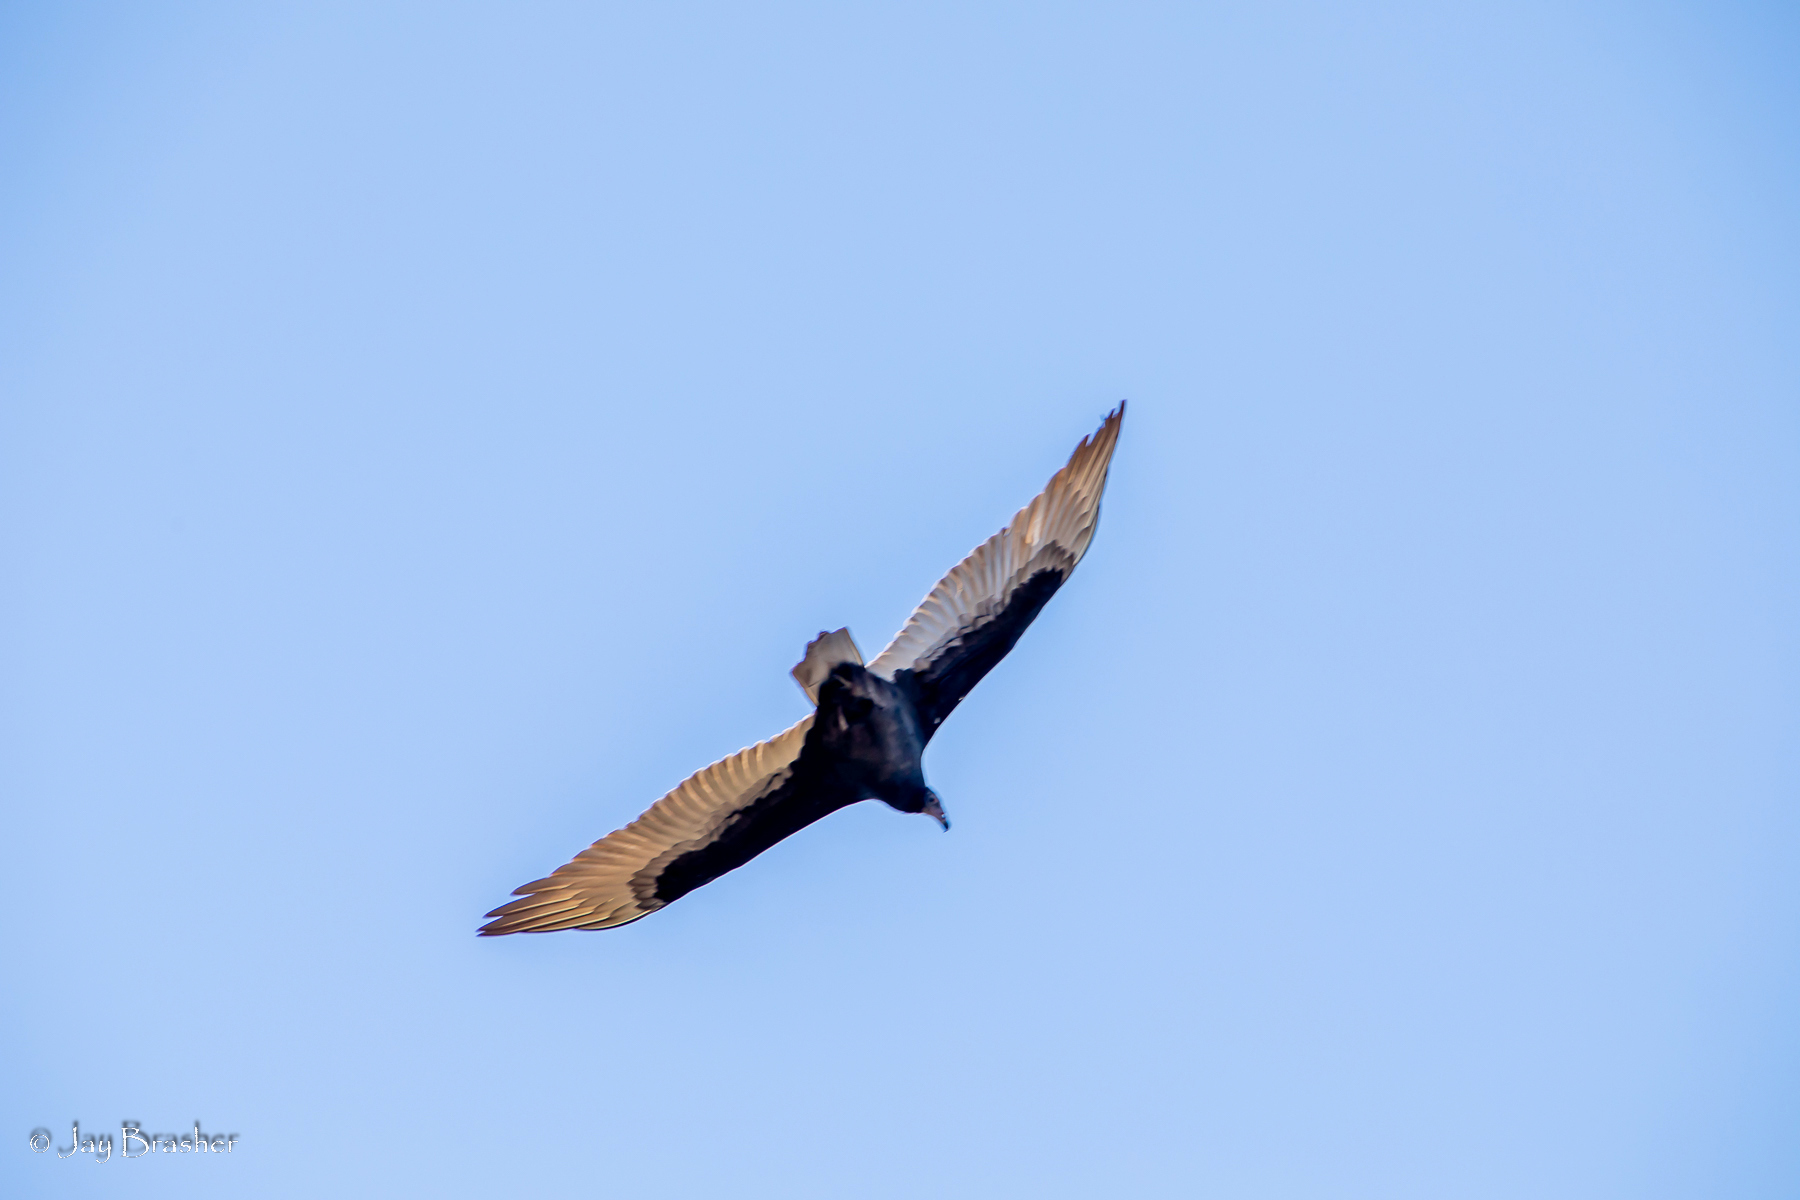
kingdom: Animalia
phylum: Chordata
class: Aves
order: Accipitriformes
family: Cathartidae
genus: Cathartes
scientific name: Cathartes aura
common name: Turkey vulture
